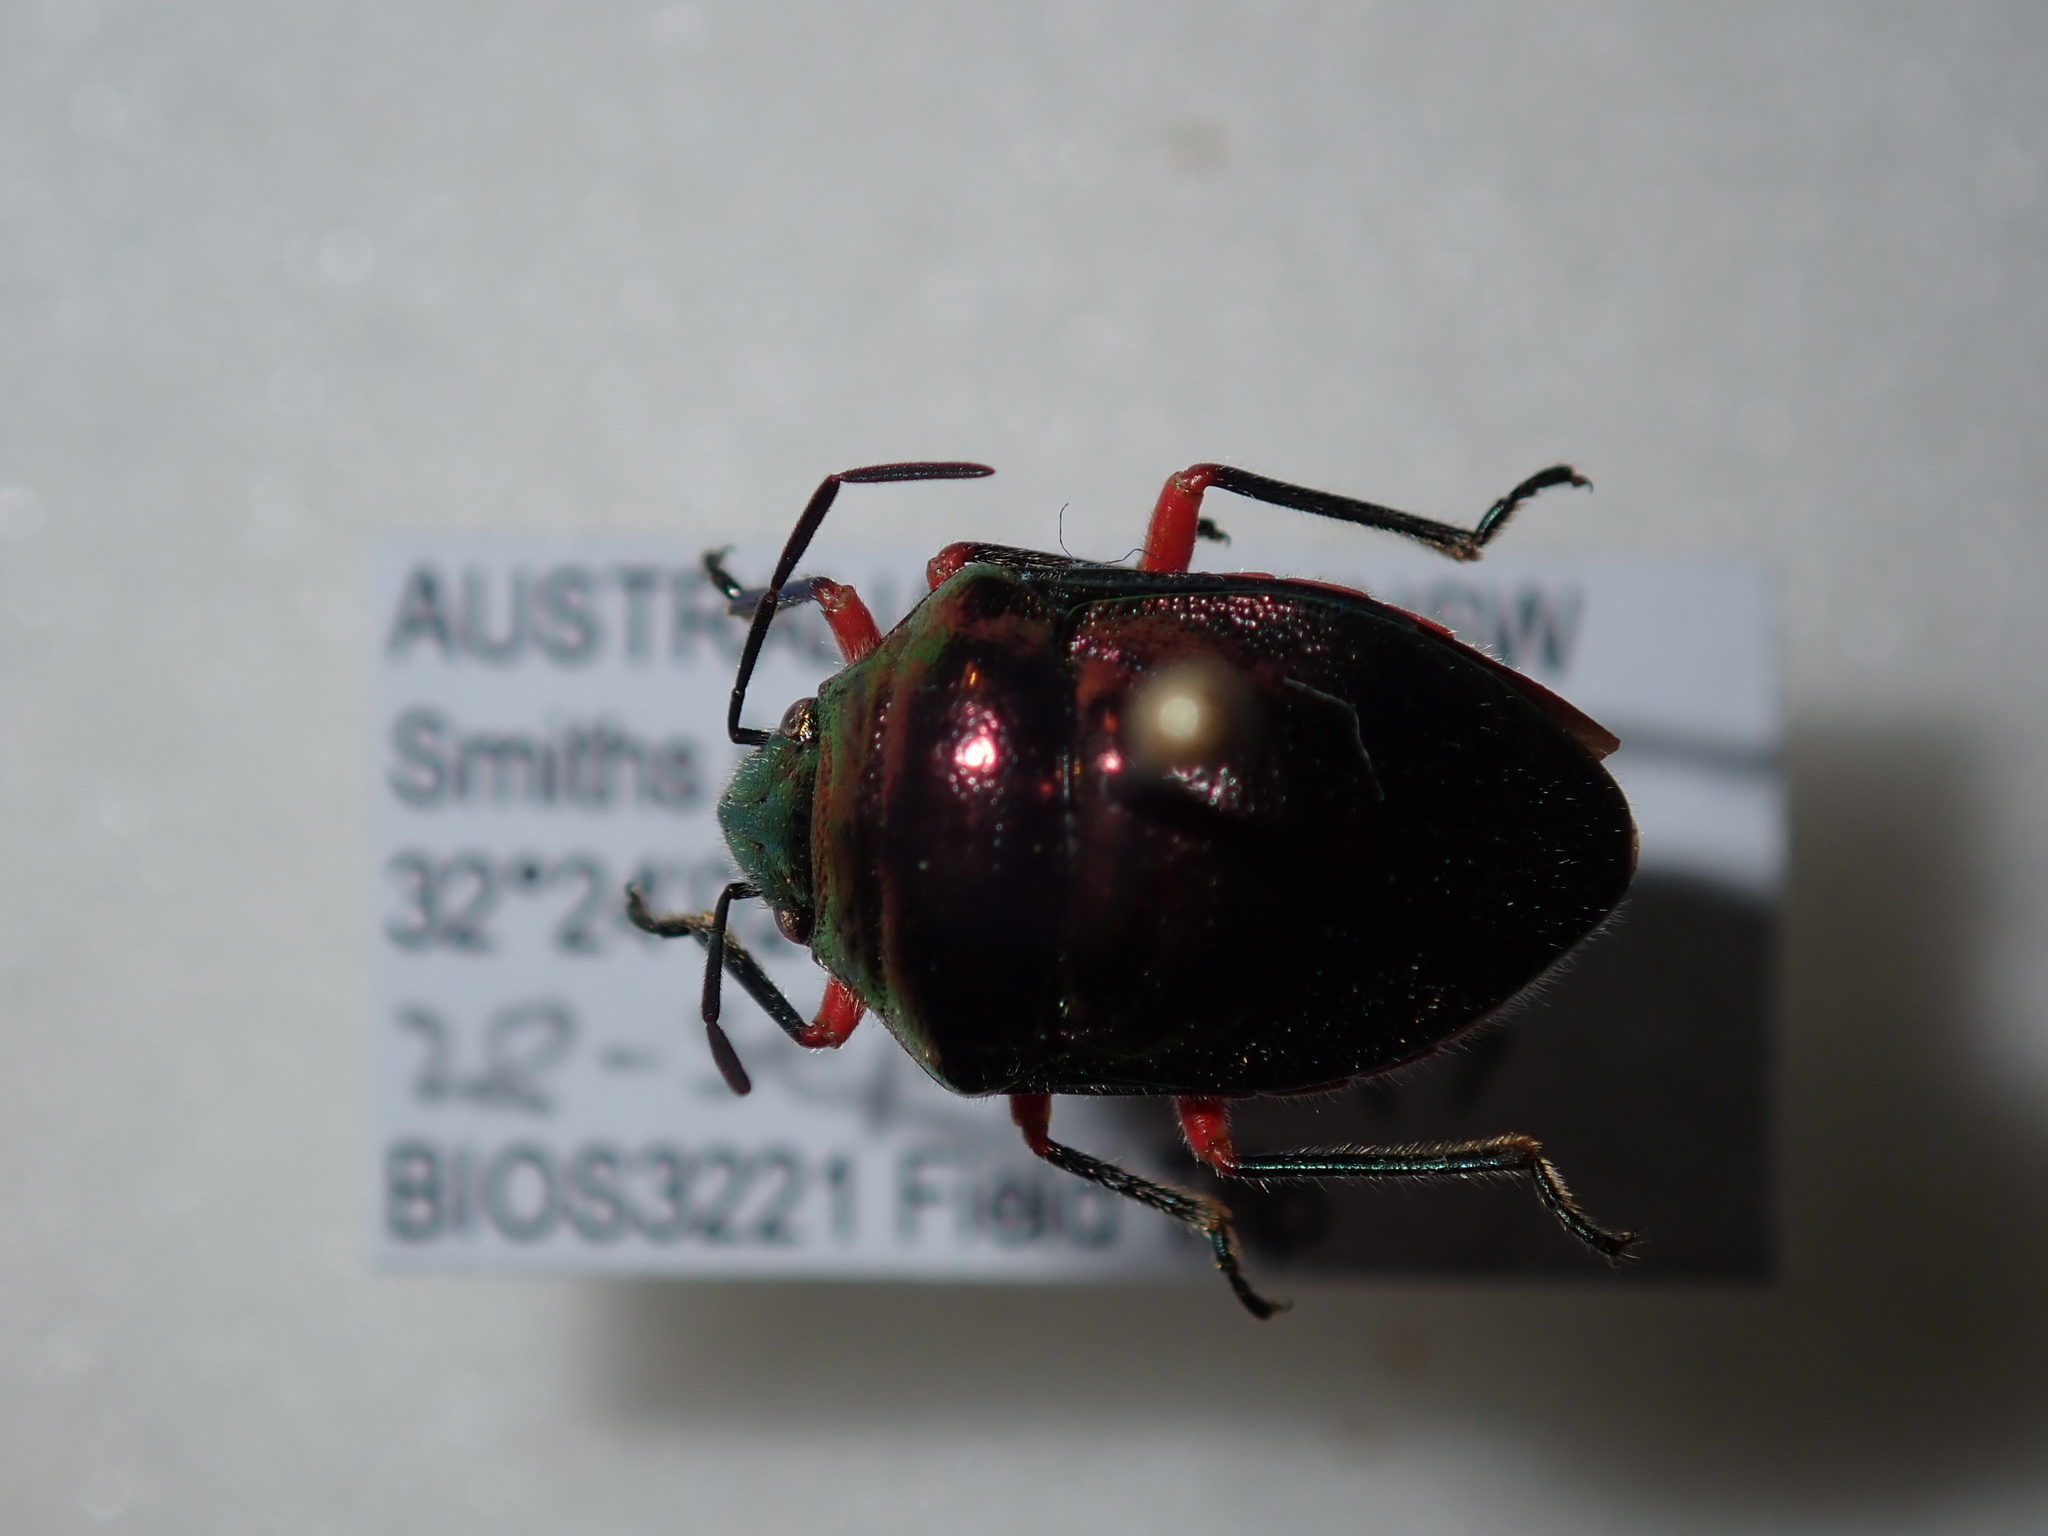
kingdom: Animalia
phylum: Arthropoda
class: Insecta
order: Hemiptera
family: Scutelleridae
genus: Lampromicra
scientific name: Lampromicra
